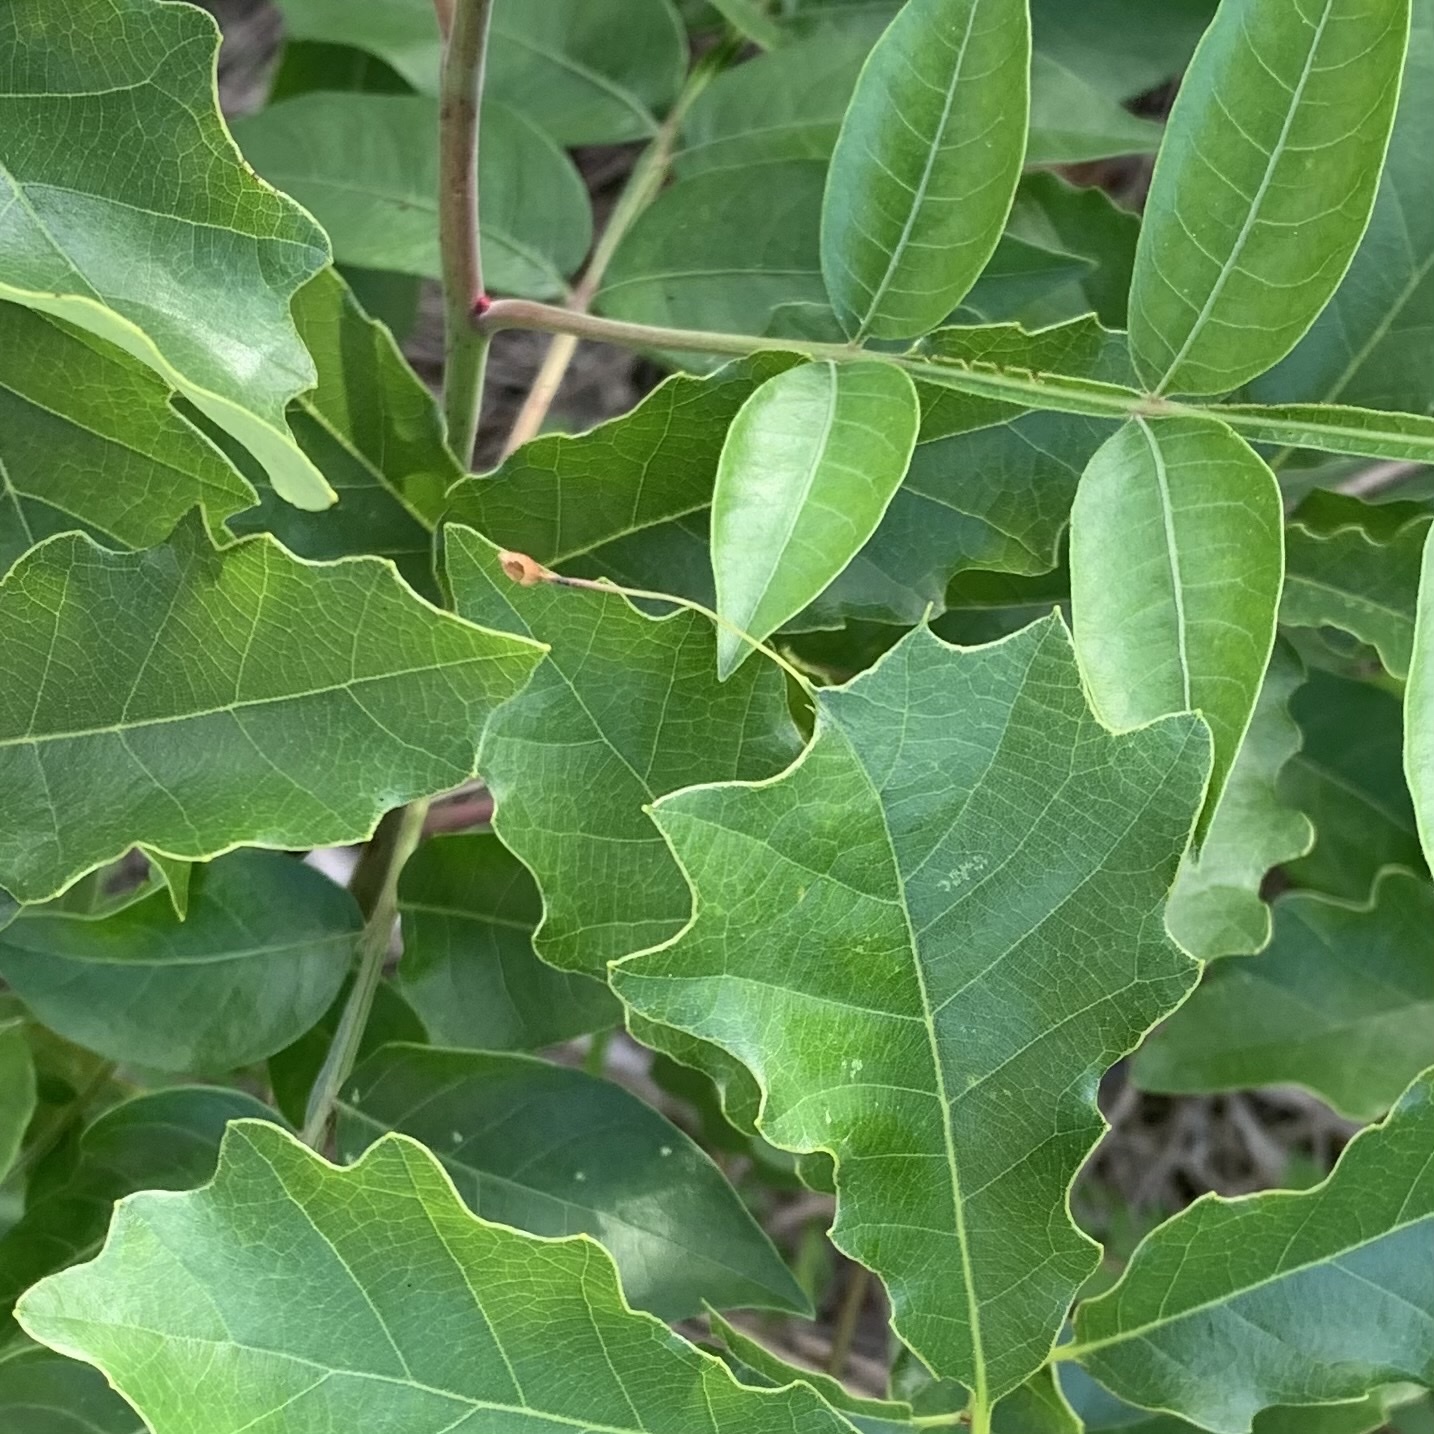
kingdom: Animalia
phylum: Arthropoda
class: Insecta
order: Hymenoptera
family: Cynipidae
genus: Andricus
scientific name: Andricus
